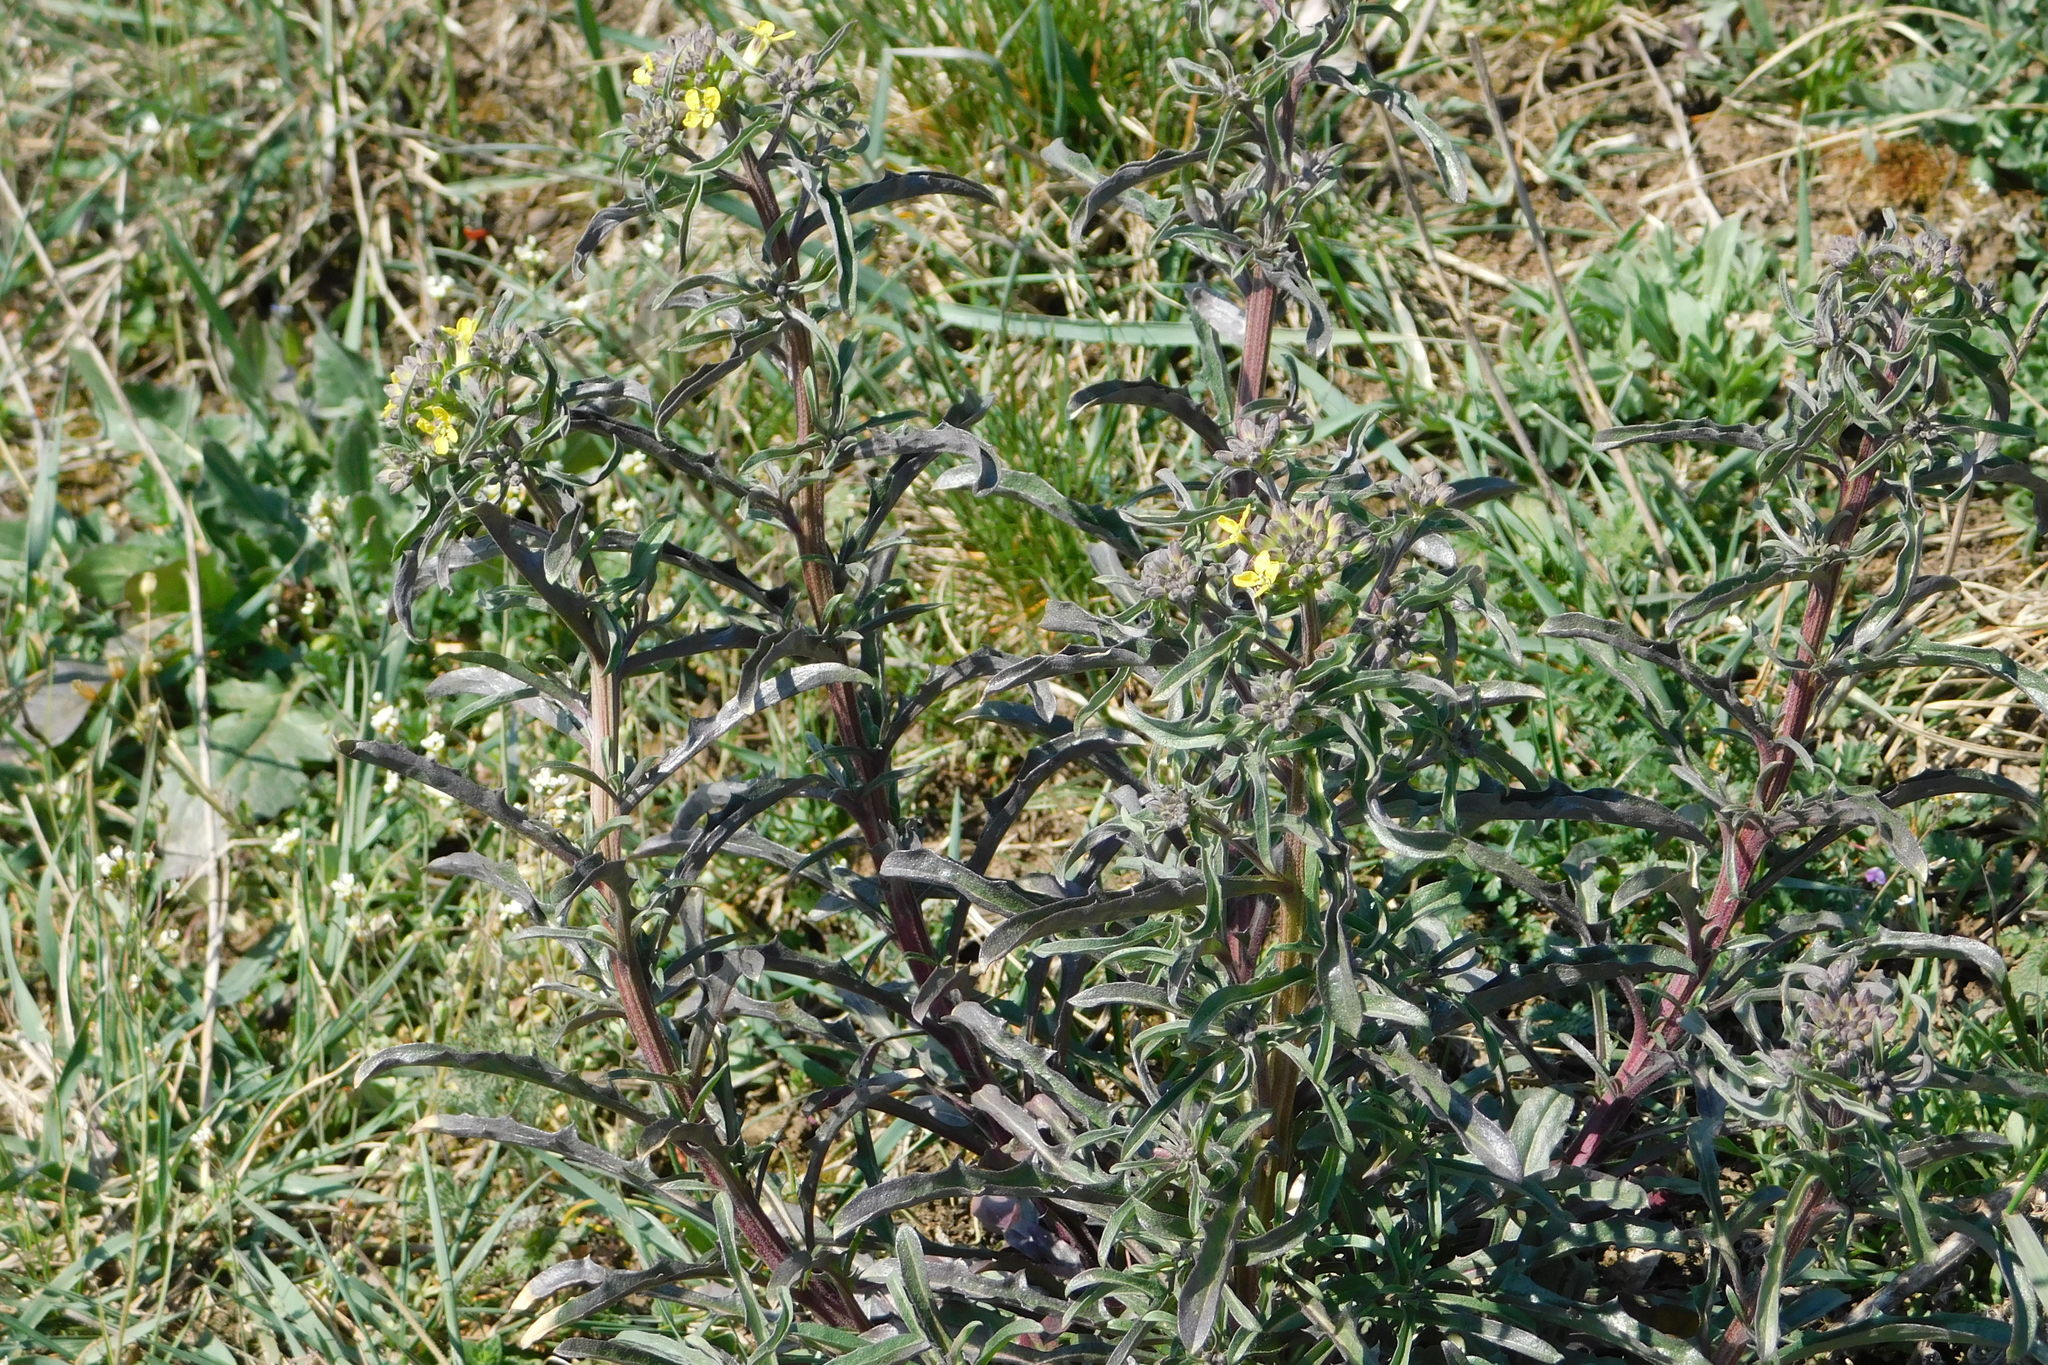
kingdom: Plantae
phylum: Tracheophyta
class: Magnoliopsida
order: Brassicales
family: Brassicaceae
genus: Erysimum
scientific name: Erysimum crepidifolium
